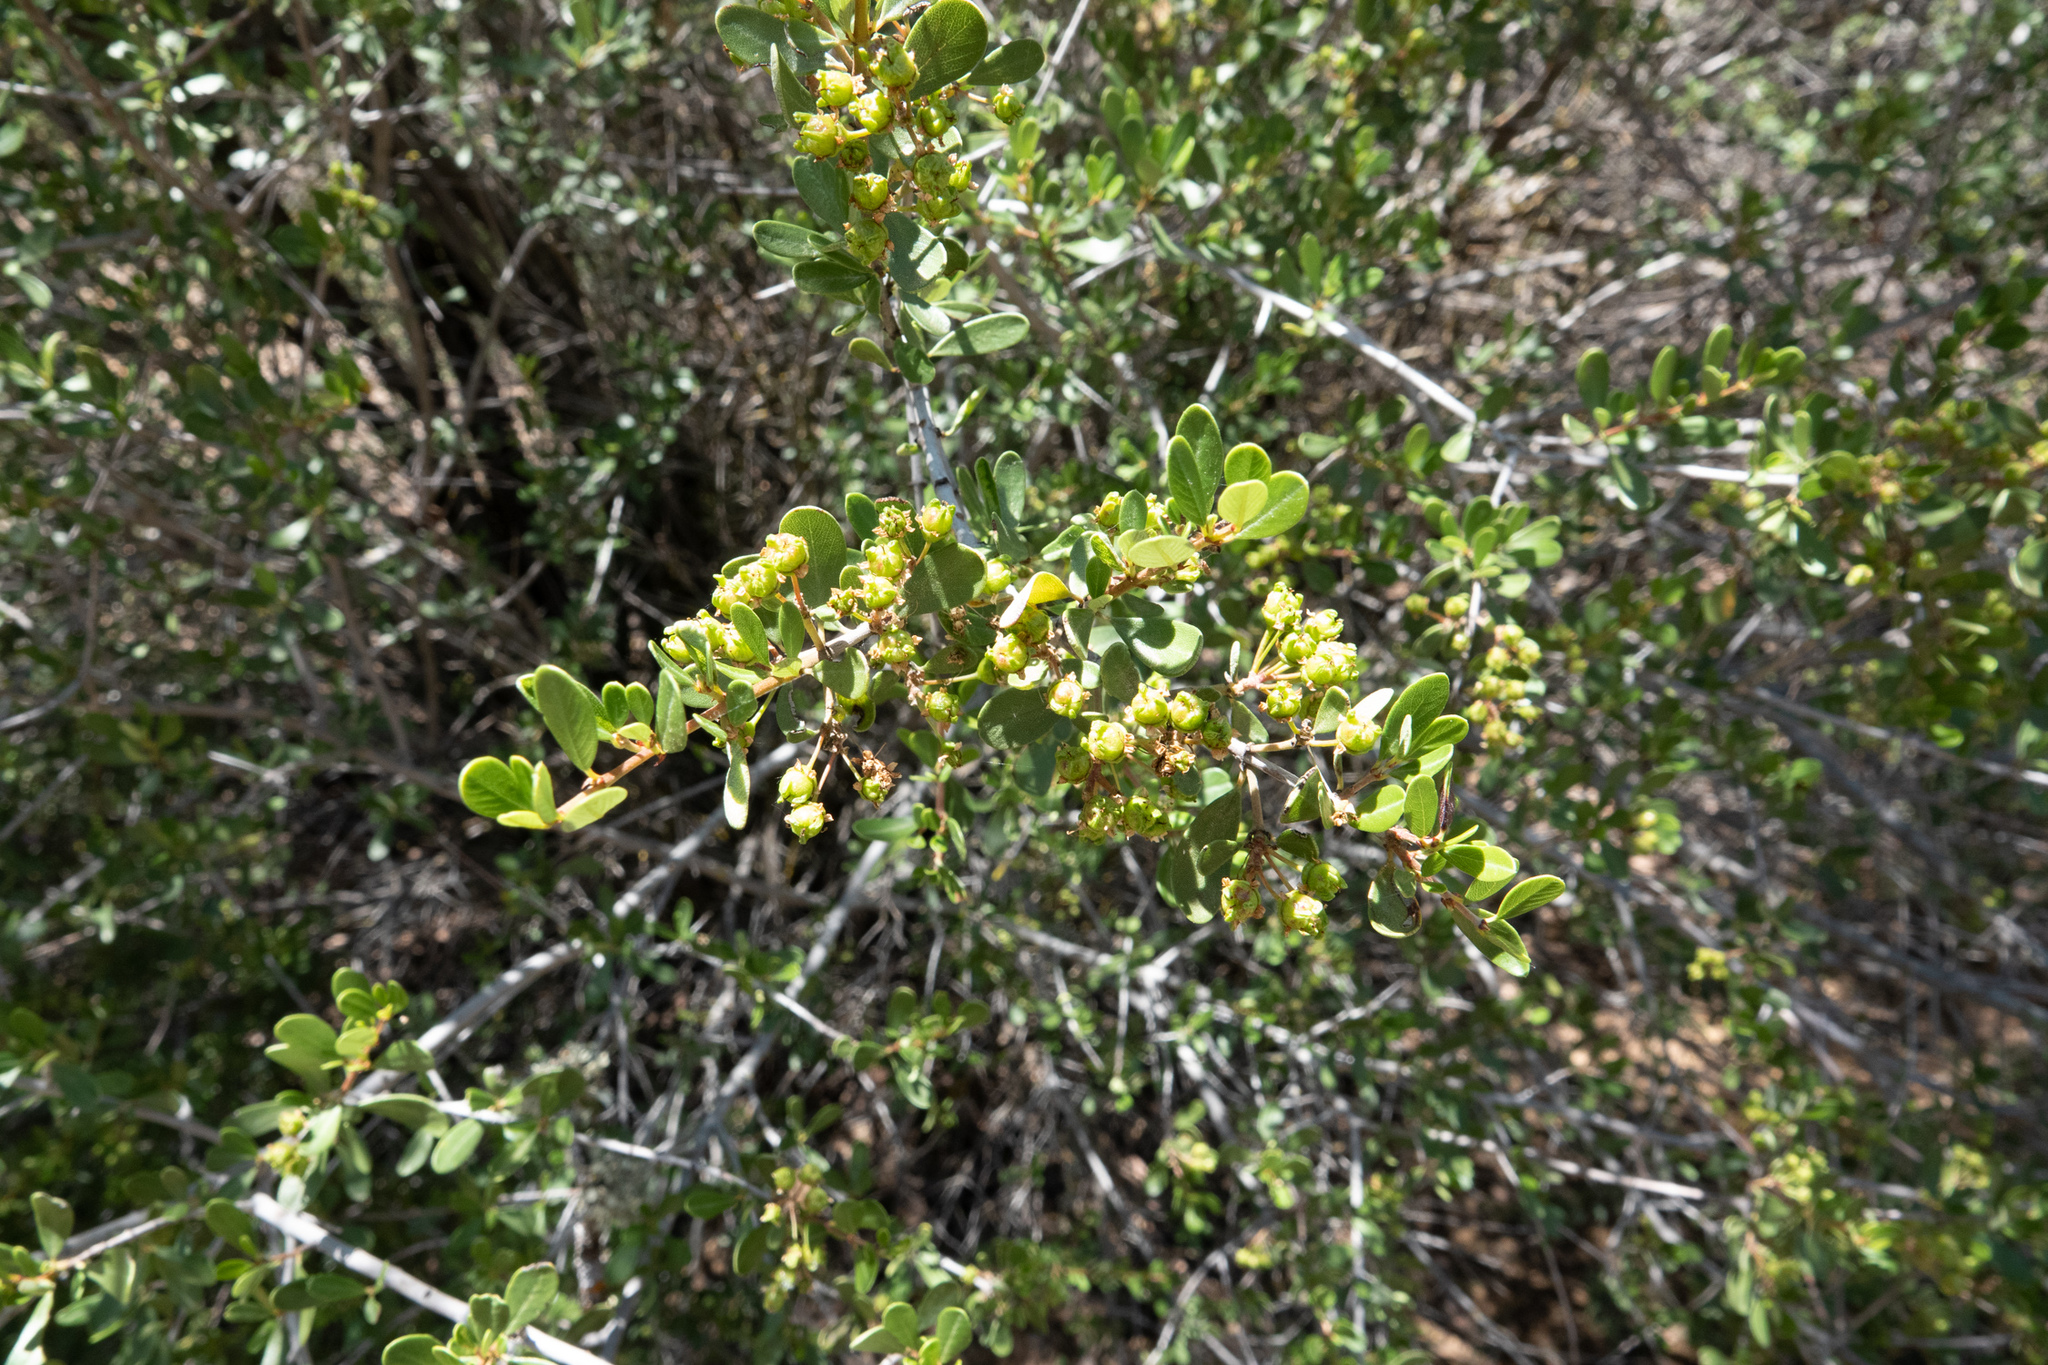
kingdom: Plantae
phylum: Tracheophyta
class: Magnoliopsida
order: Rosales
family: Rhamnaceae
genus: Ceanothus
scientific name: Ceanothus cuneatus
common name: Cuneate ceanothus
